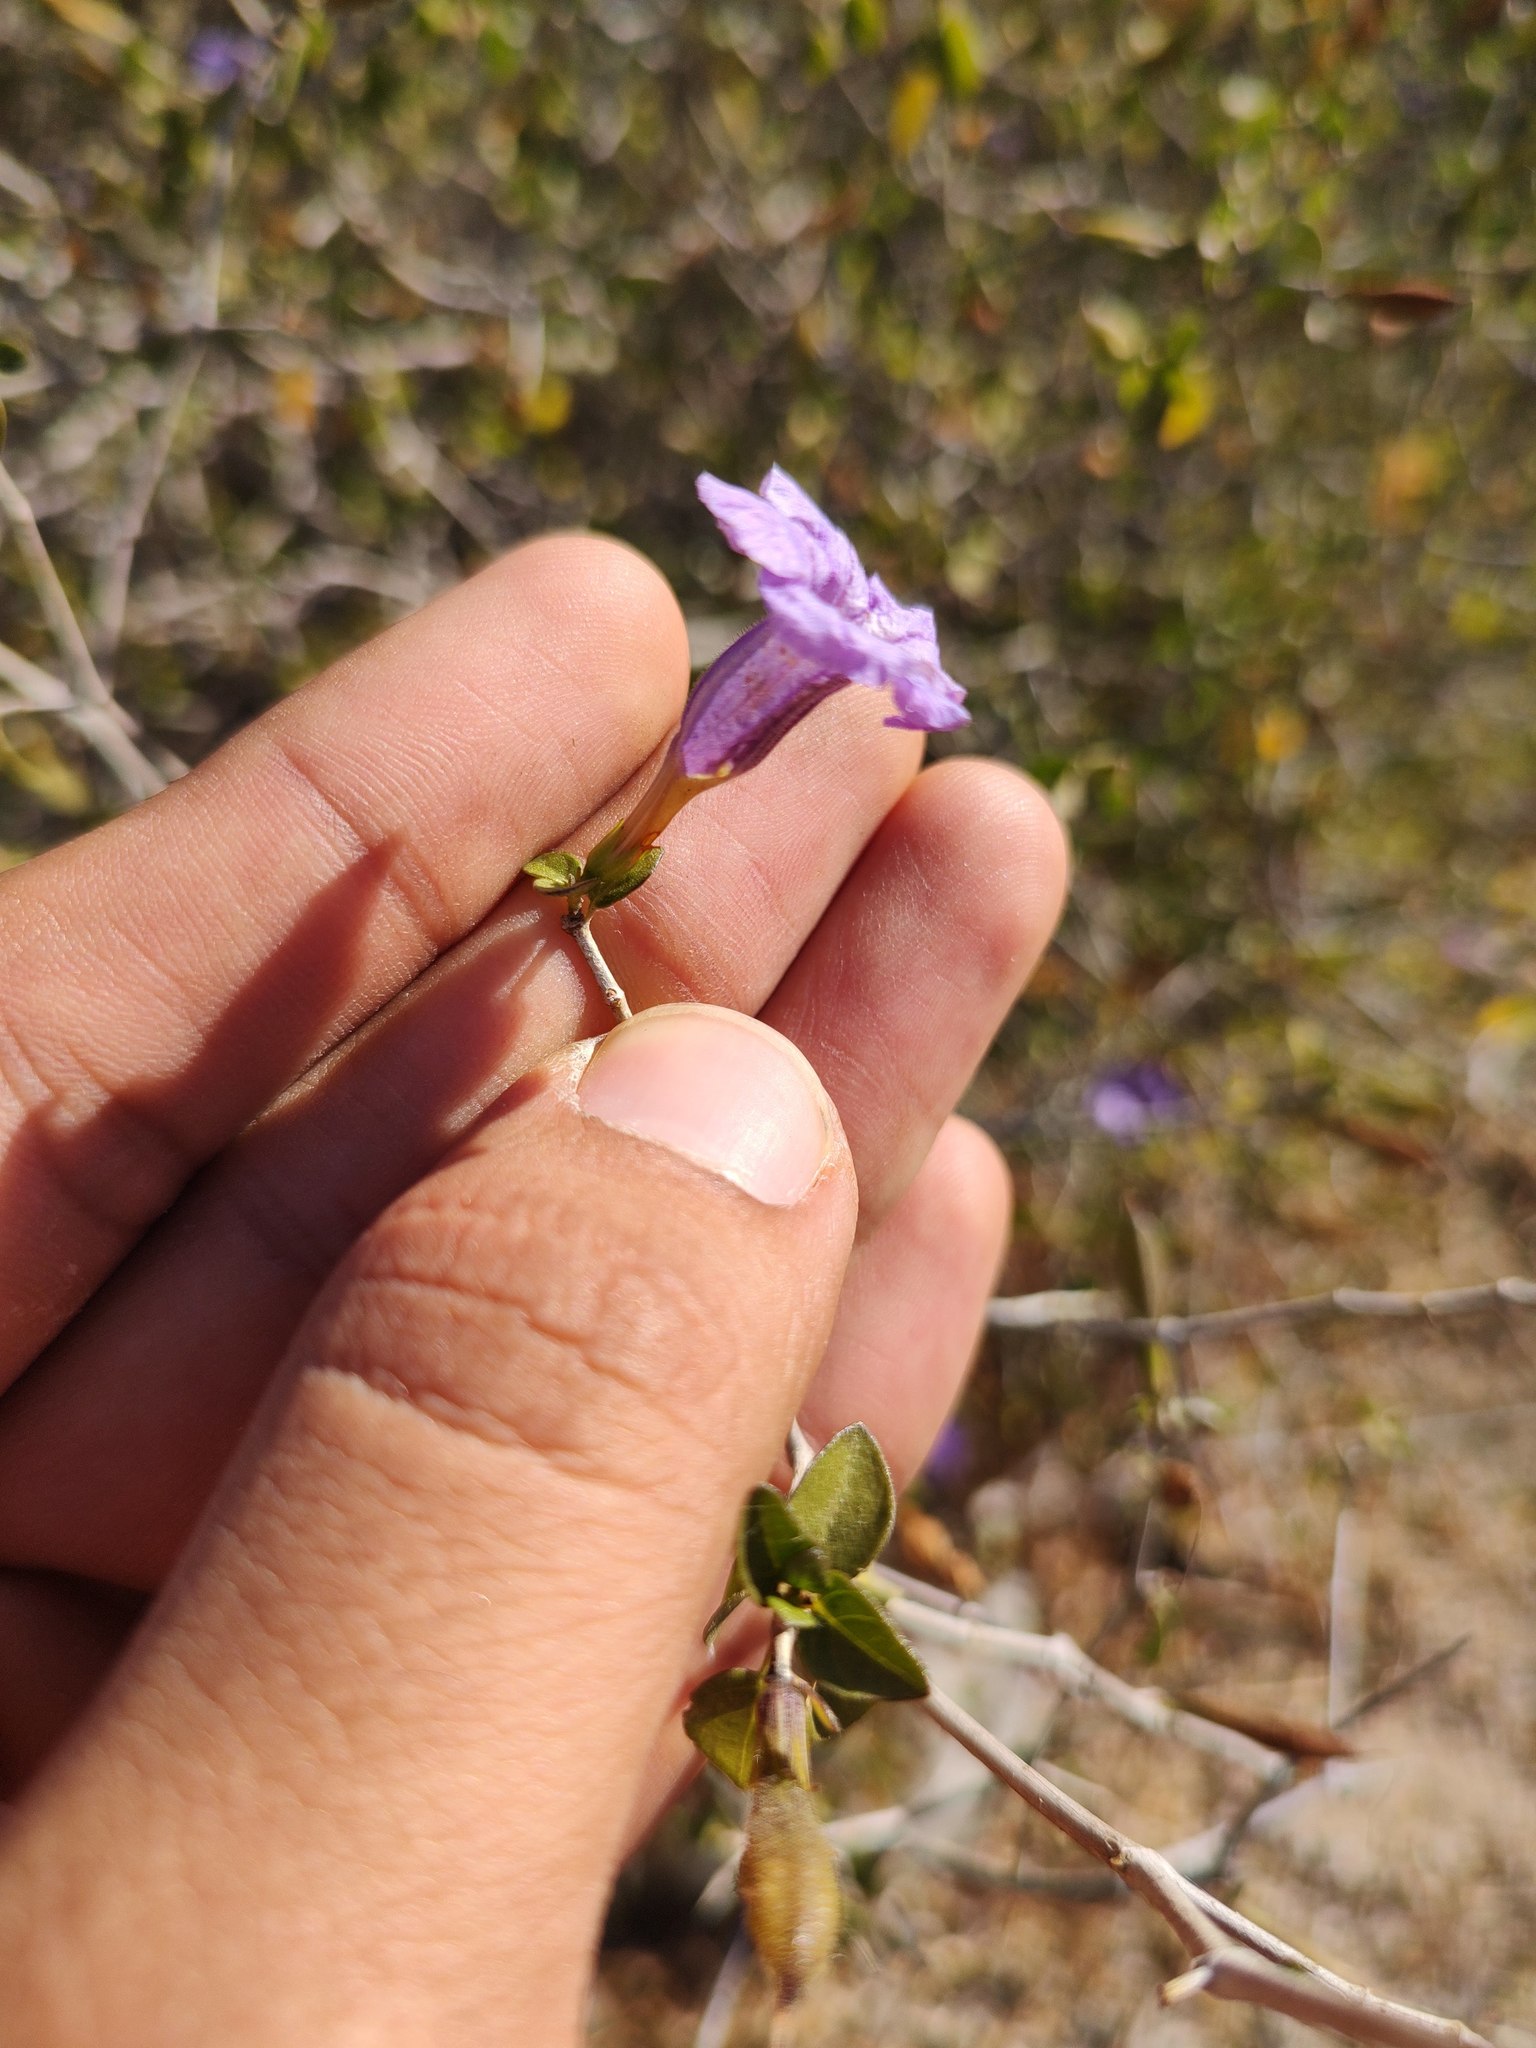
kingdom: Plantae
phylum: Tracheophyta
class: Magnoliopsida
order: Lamiales
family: Acanthaceae
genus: Ruellia
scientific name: Ruellia californica
